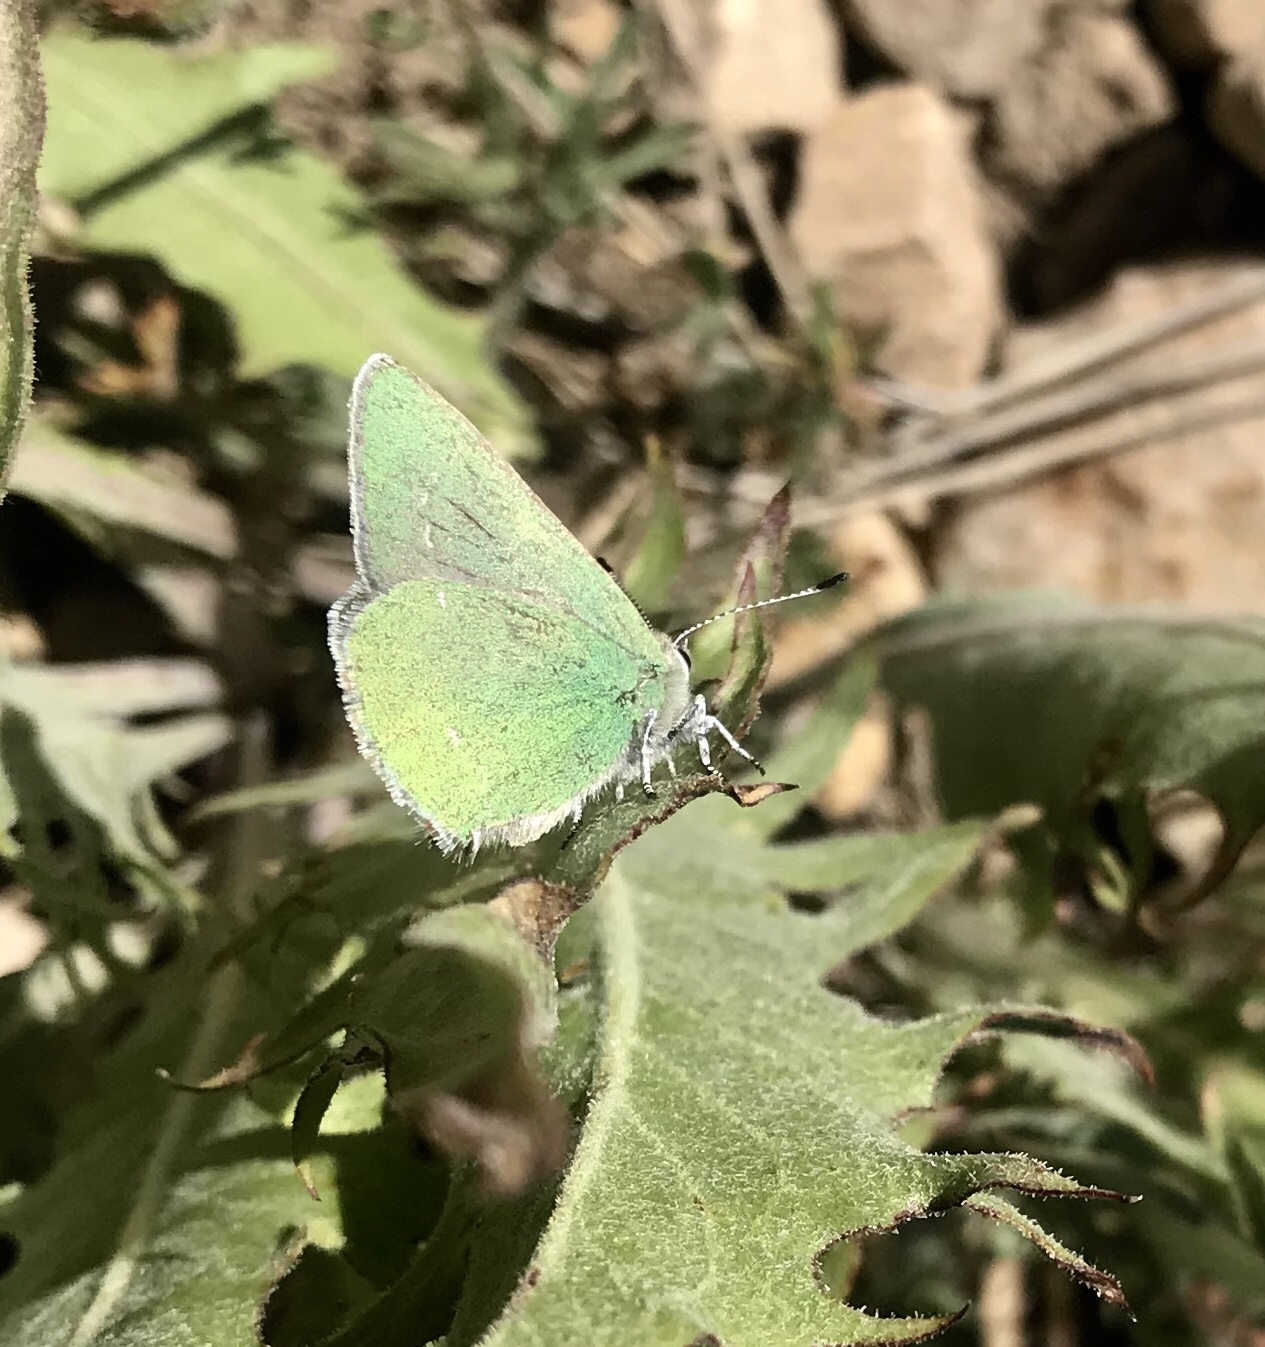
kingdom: Animalia
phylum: Arthropoda
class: Insecta
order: Lepidoptera
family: Lycaenidae
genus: Callophrys
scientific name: Callophrys affinis
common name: Western green hairstreak
